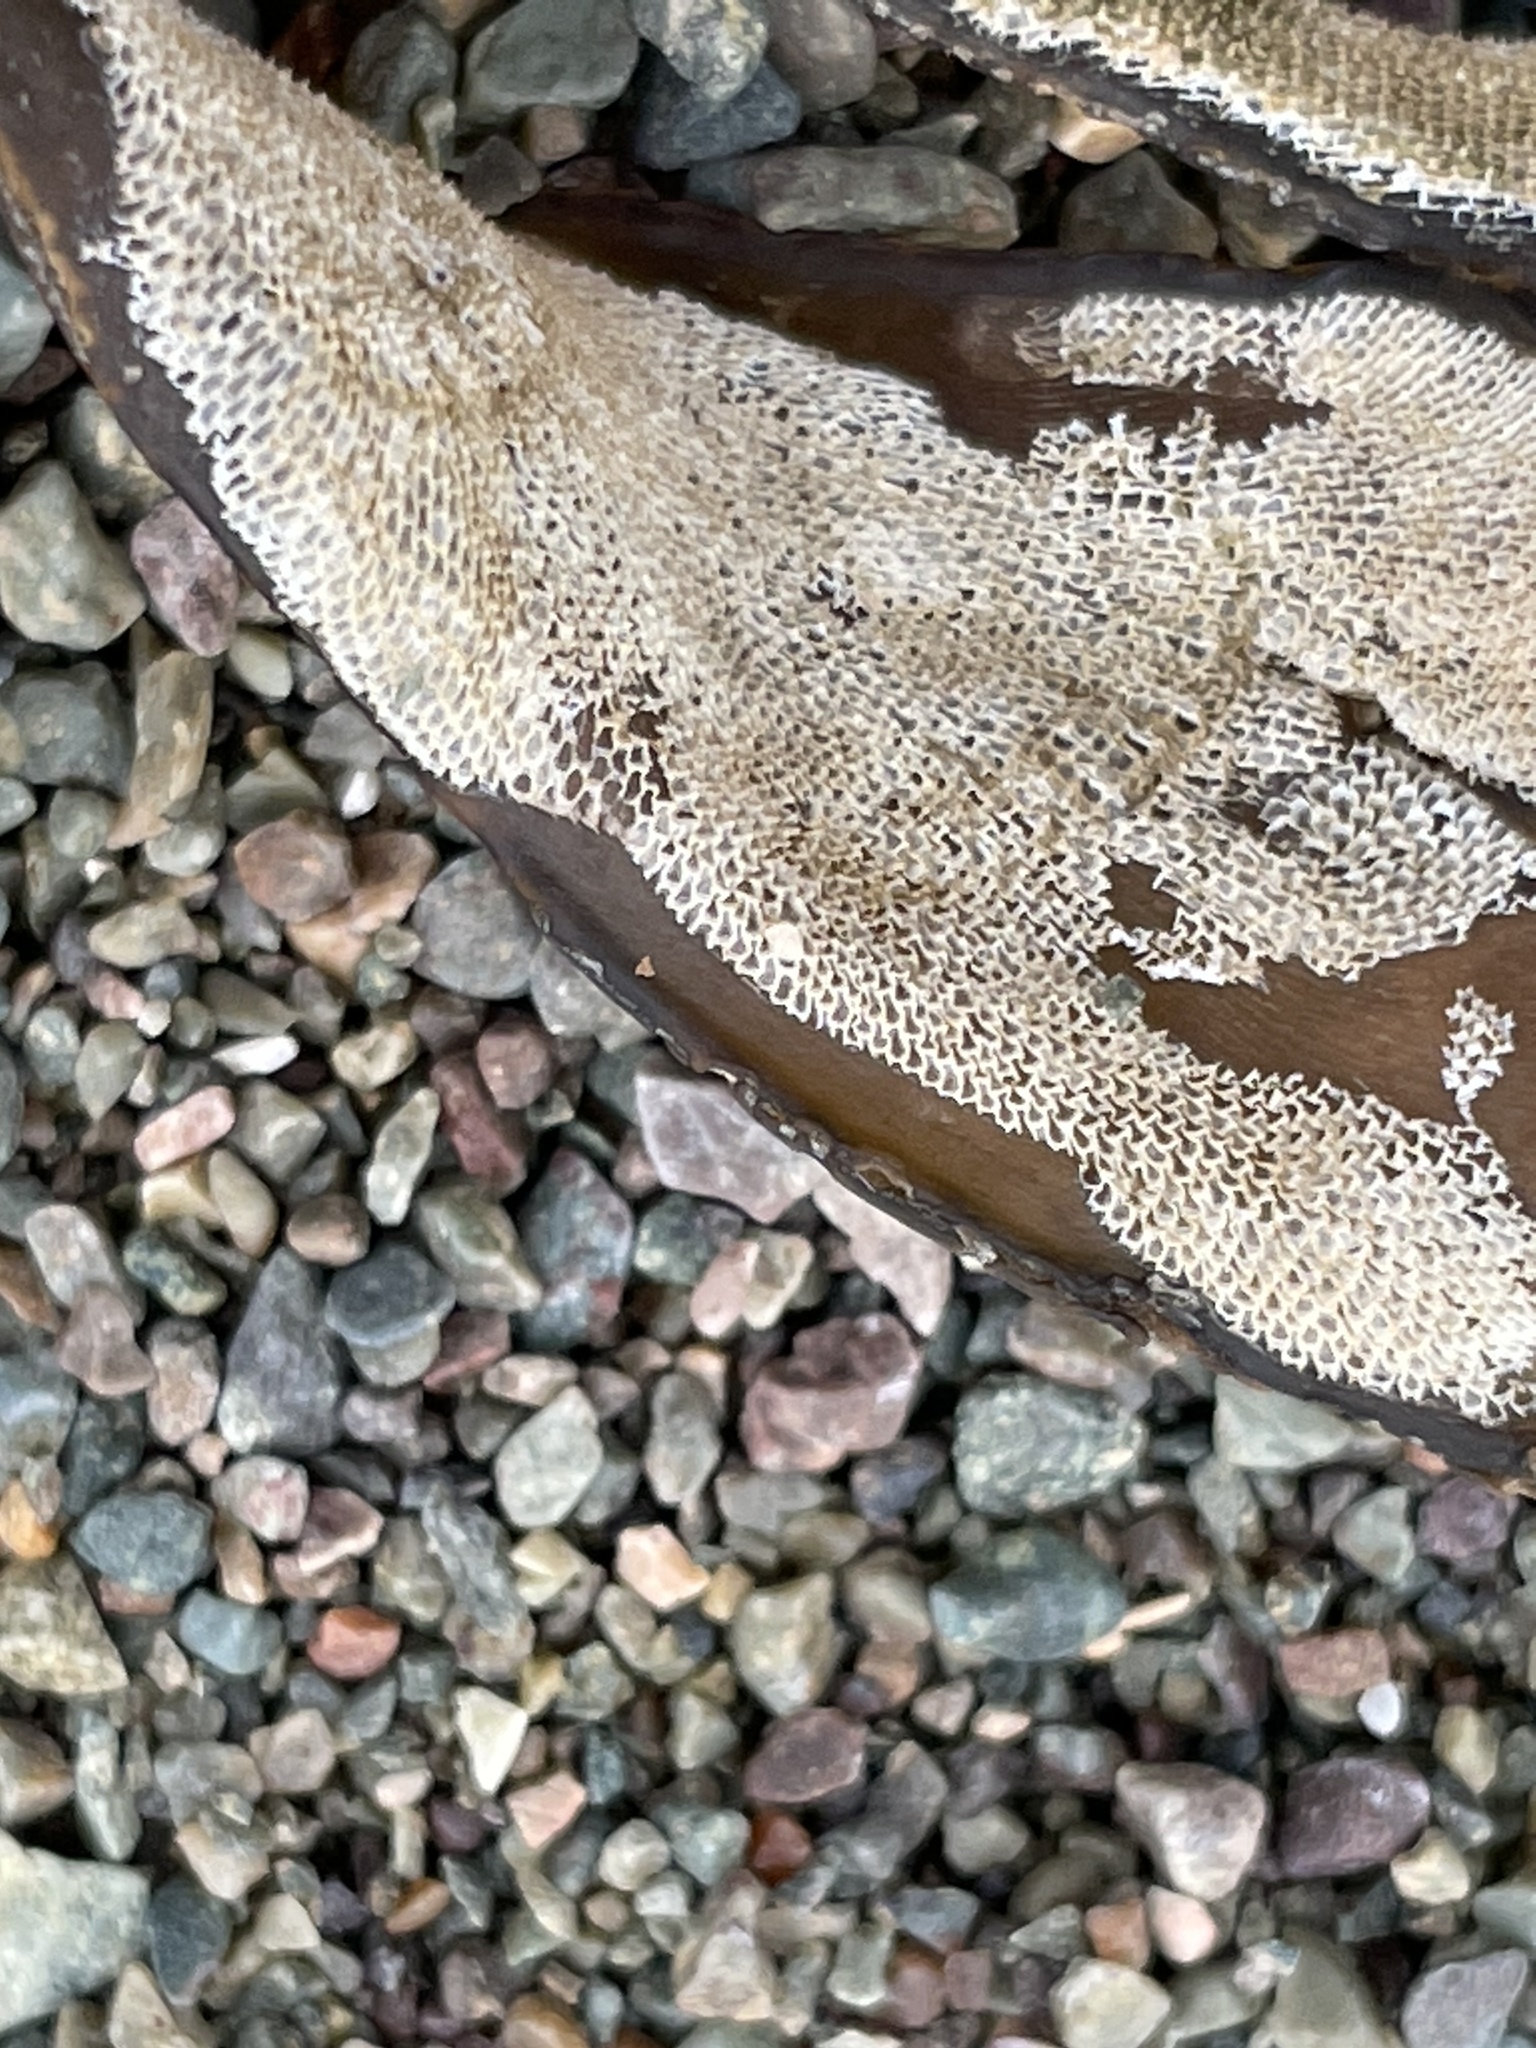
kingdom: Animalia
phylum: Bryozoa
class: Gymnolaemata
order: Cheilostomatida
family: Membraniporidae
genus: Membranipora
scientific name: Membranipora membranacea
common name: Sea mat
